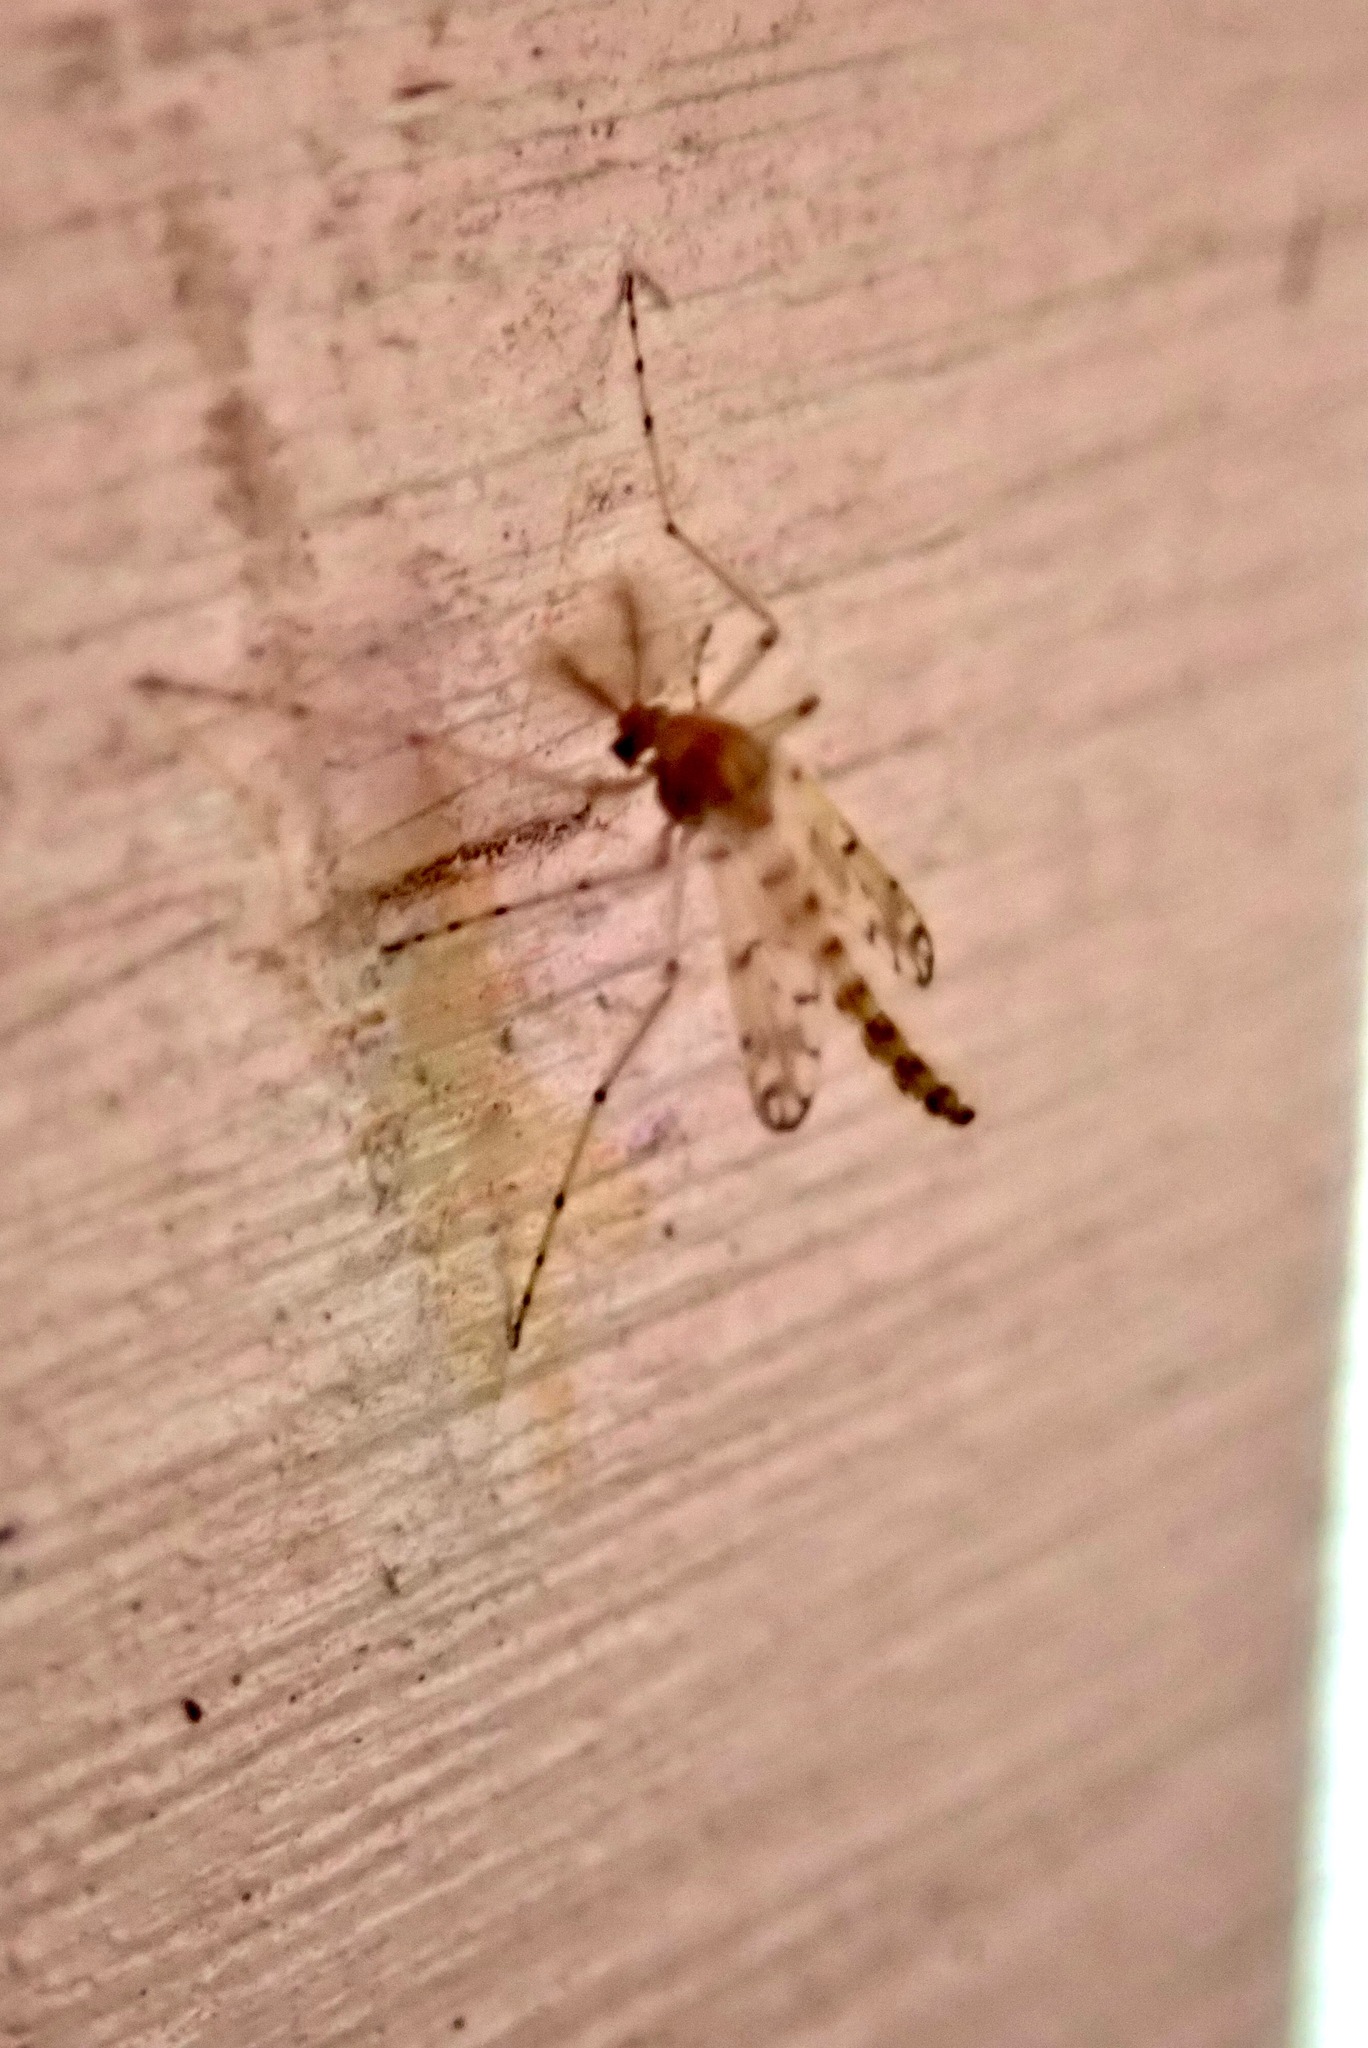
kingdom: Animalia
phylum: Arthropoda
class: Insecta
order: Diptera
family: Chironomidae
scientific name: Chironomidae
